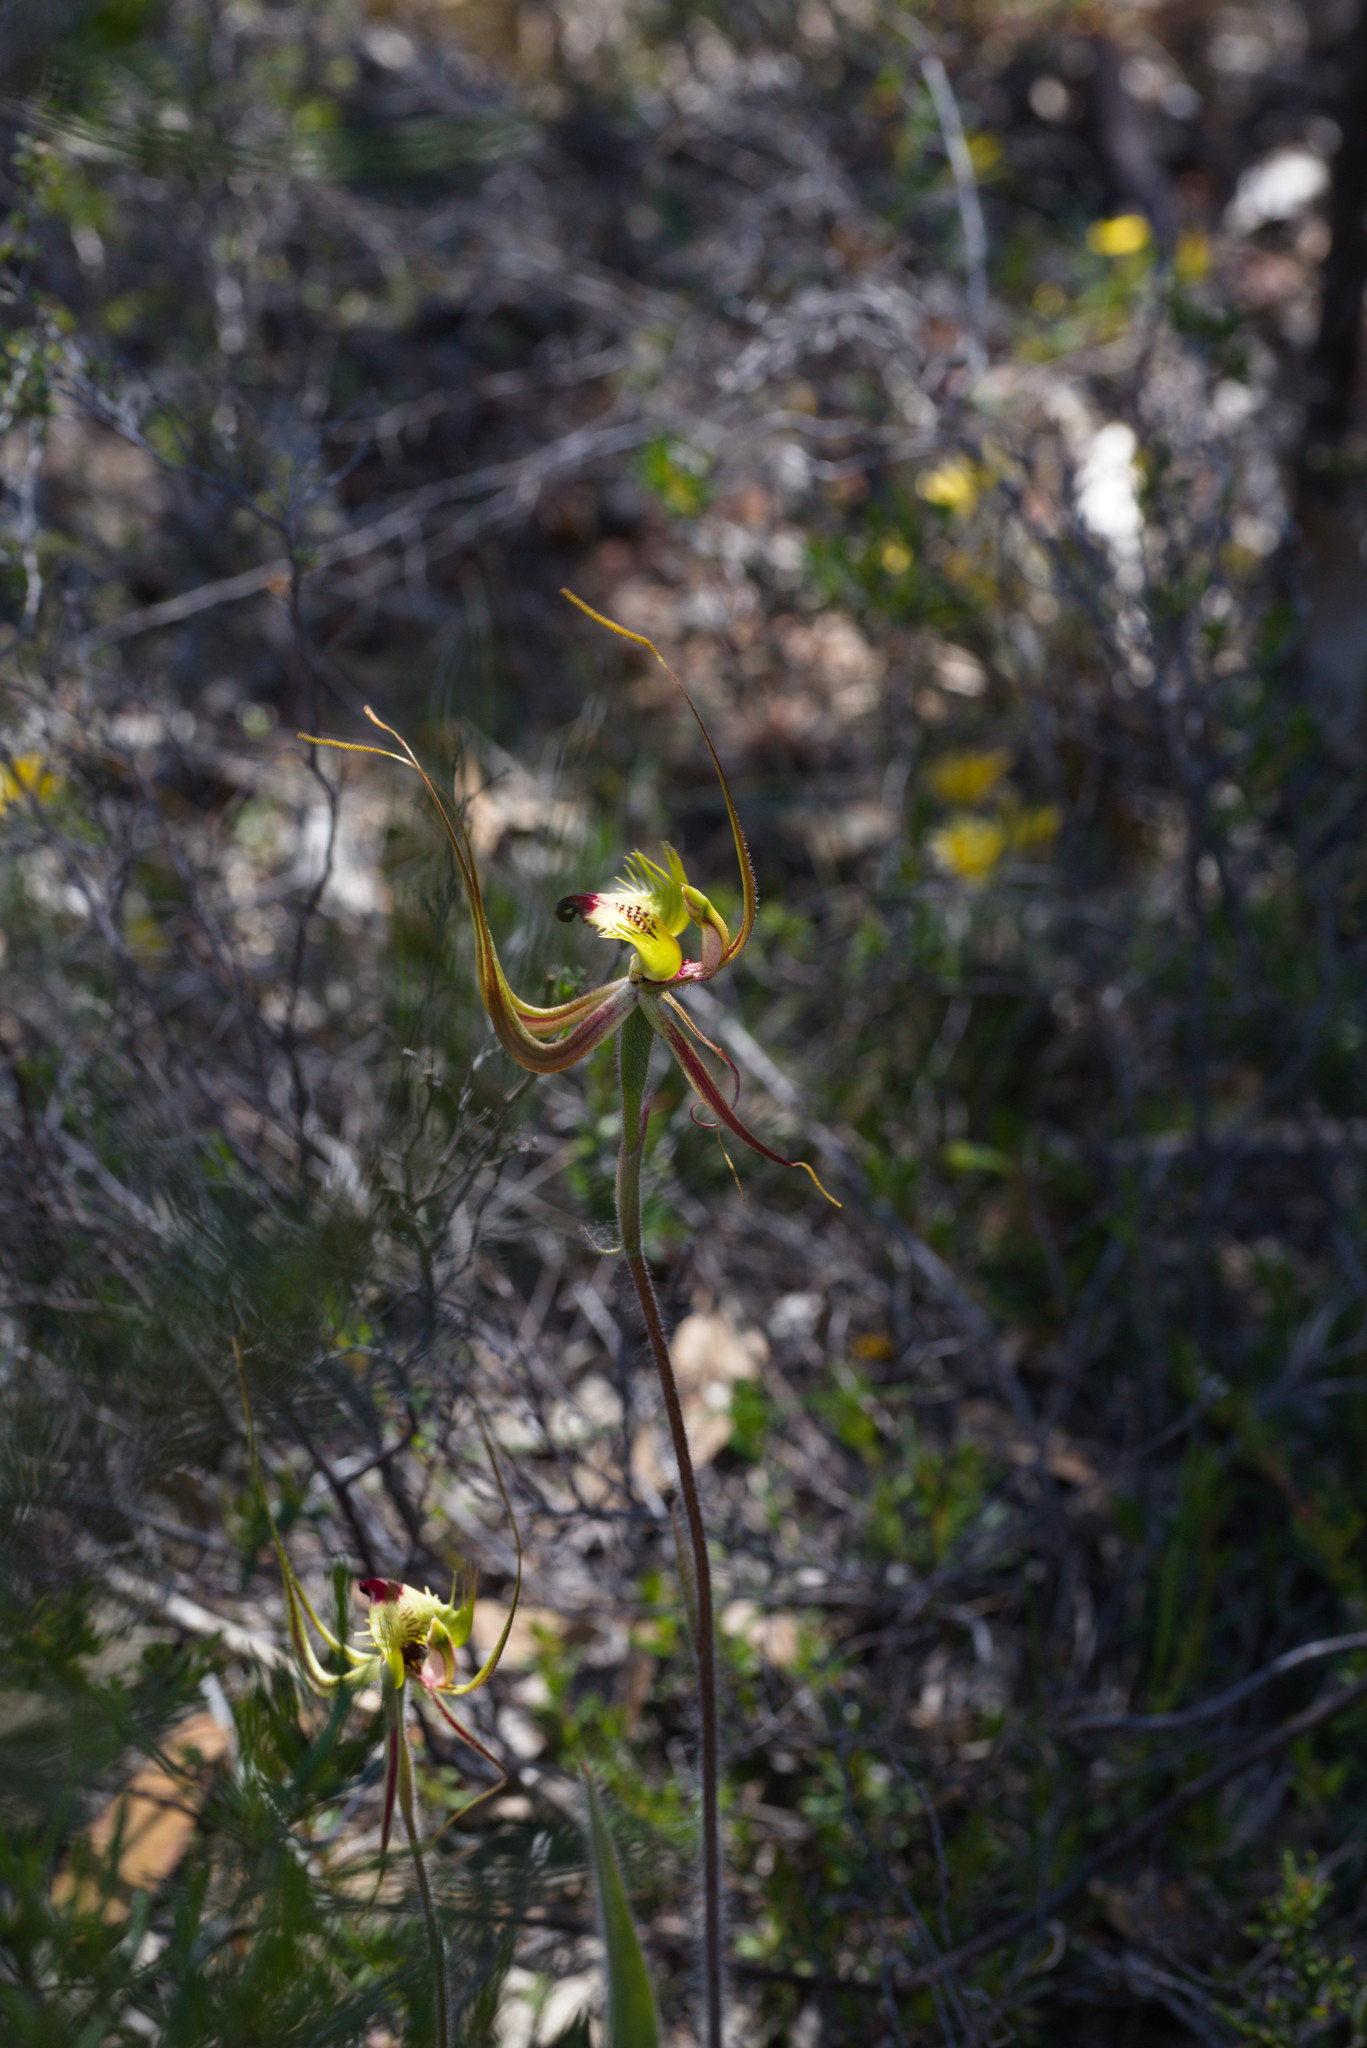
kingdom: Plantae
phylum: Tracheophyta
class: Liliopsida
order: Asparagales
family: Orchidaceae
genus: Caladenia
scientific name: Caladenia falcata
